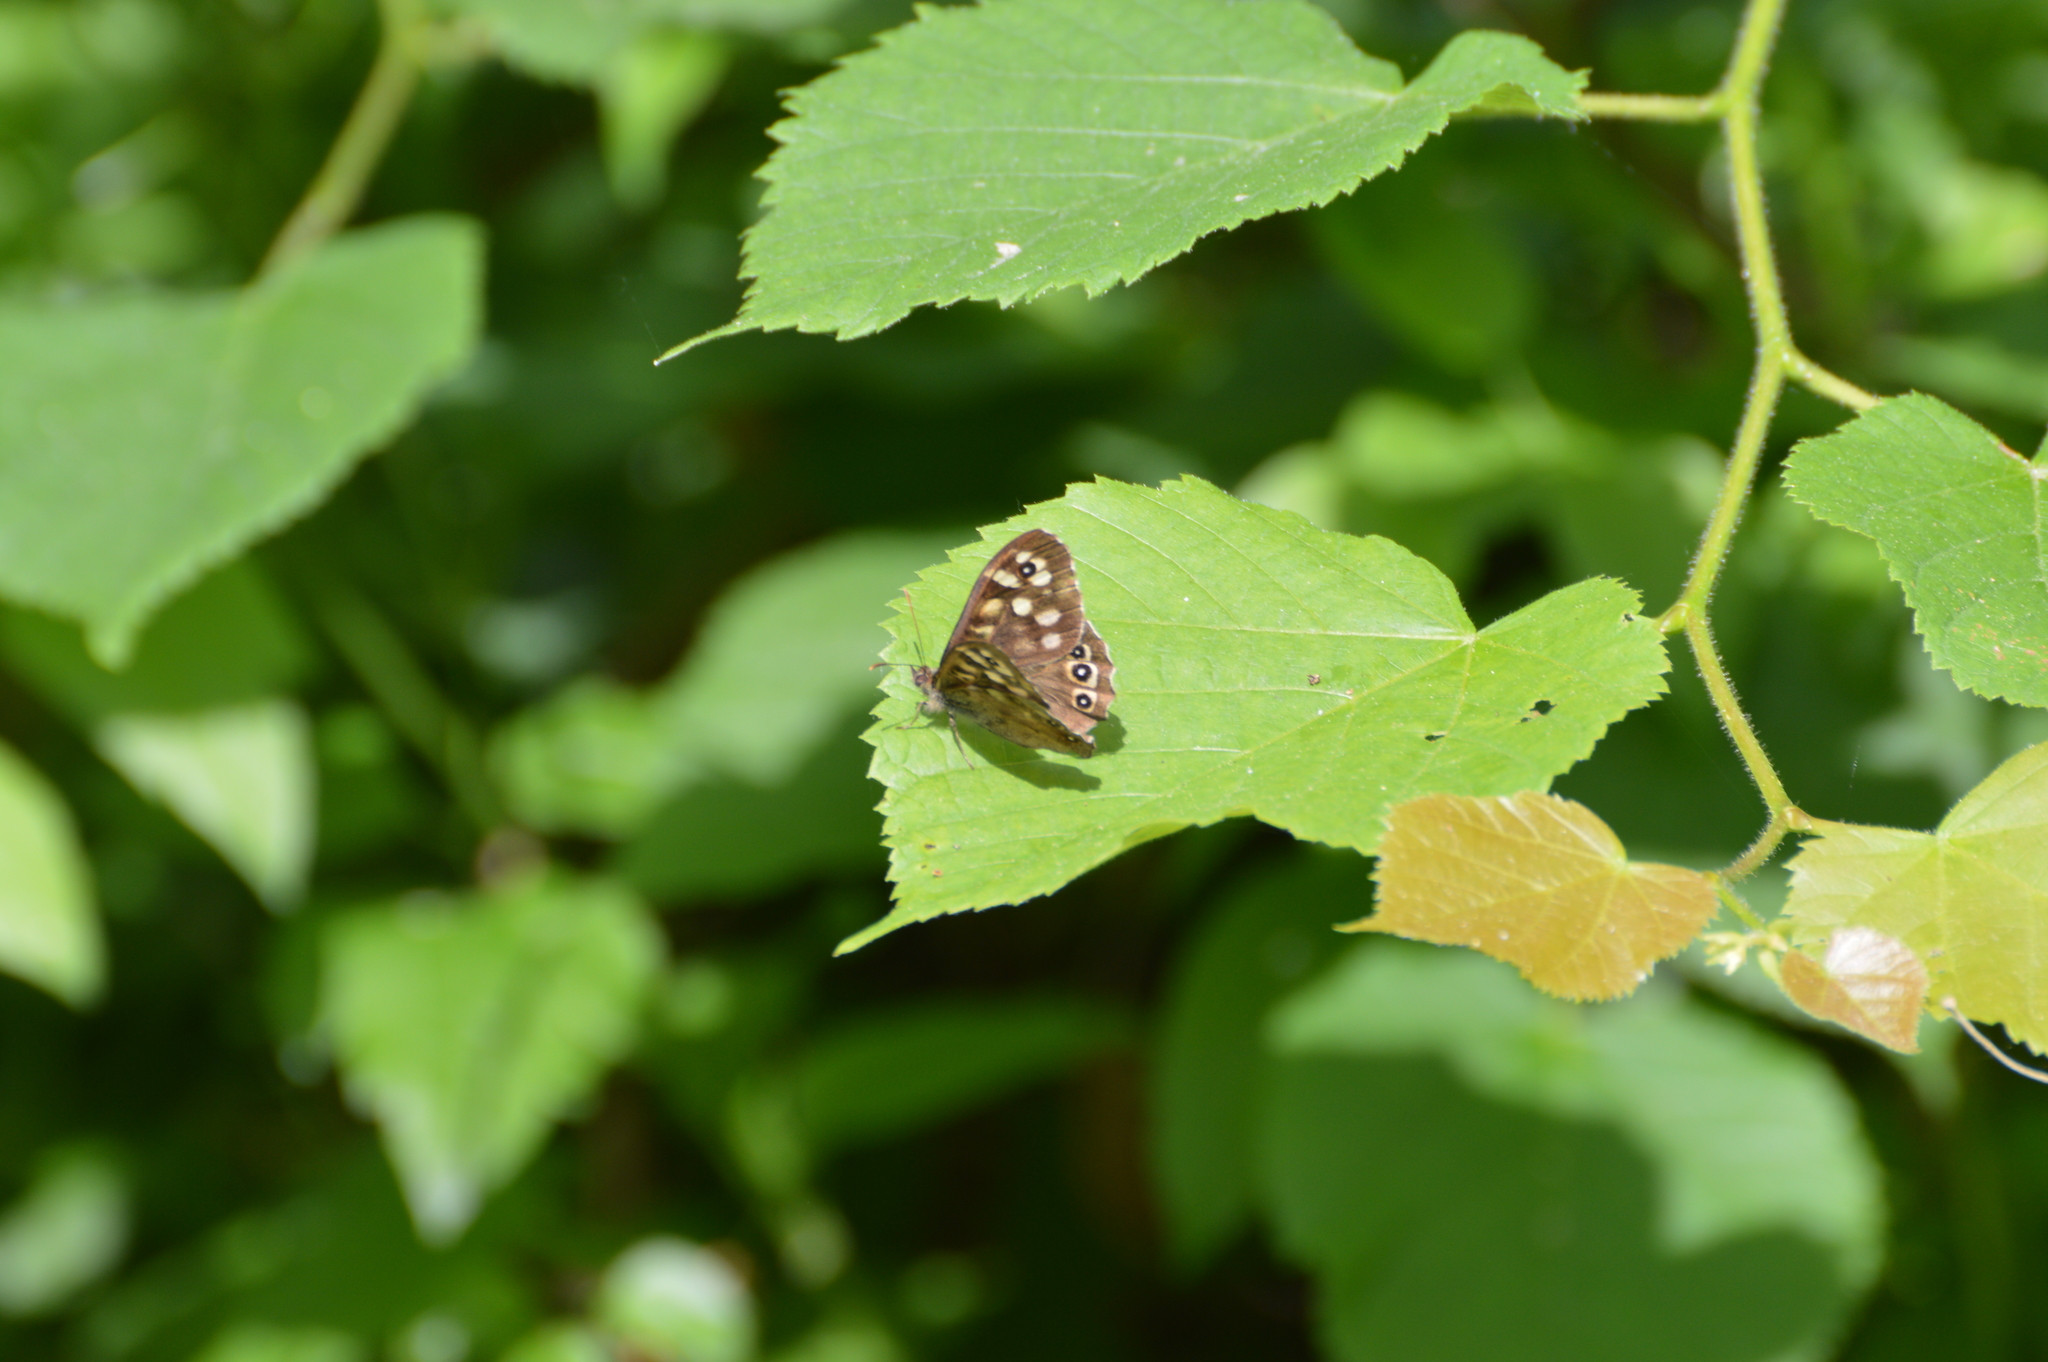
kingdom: Animalia
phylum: Arthropoda
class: Insecta
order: Lepidoptera
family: Nymphalidae
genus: Pararge
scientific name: Pararge aegeria
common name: Speckled wood
